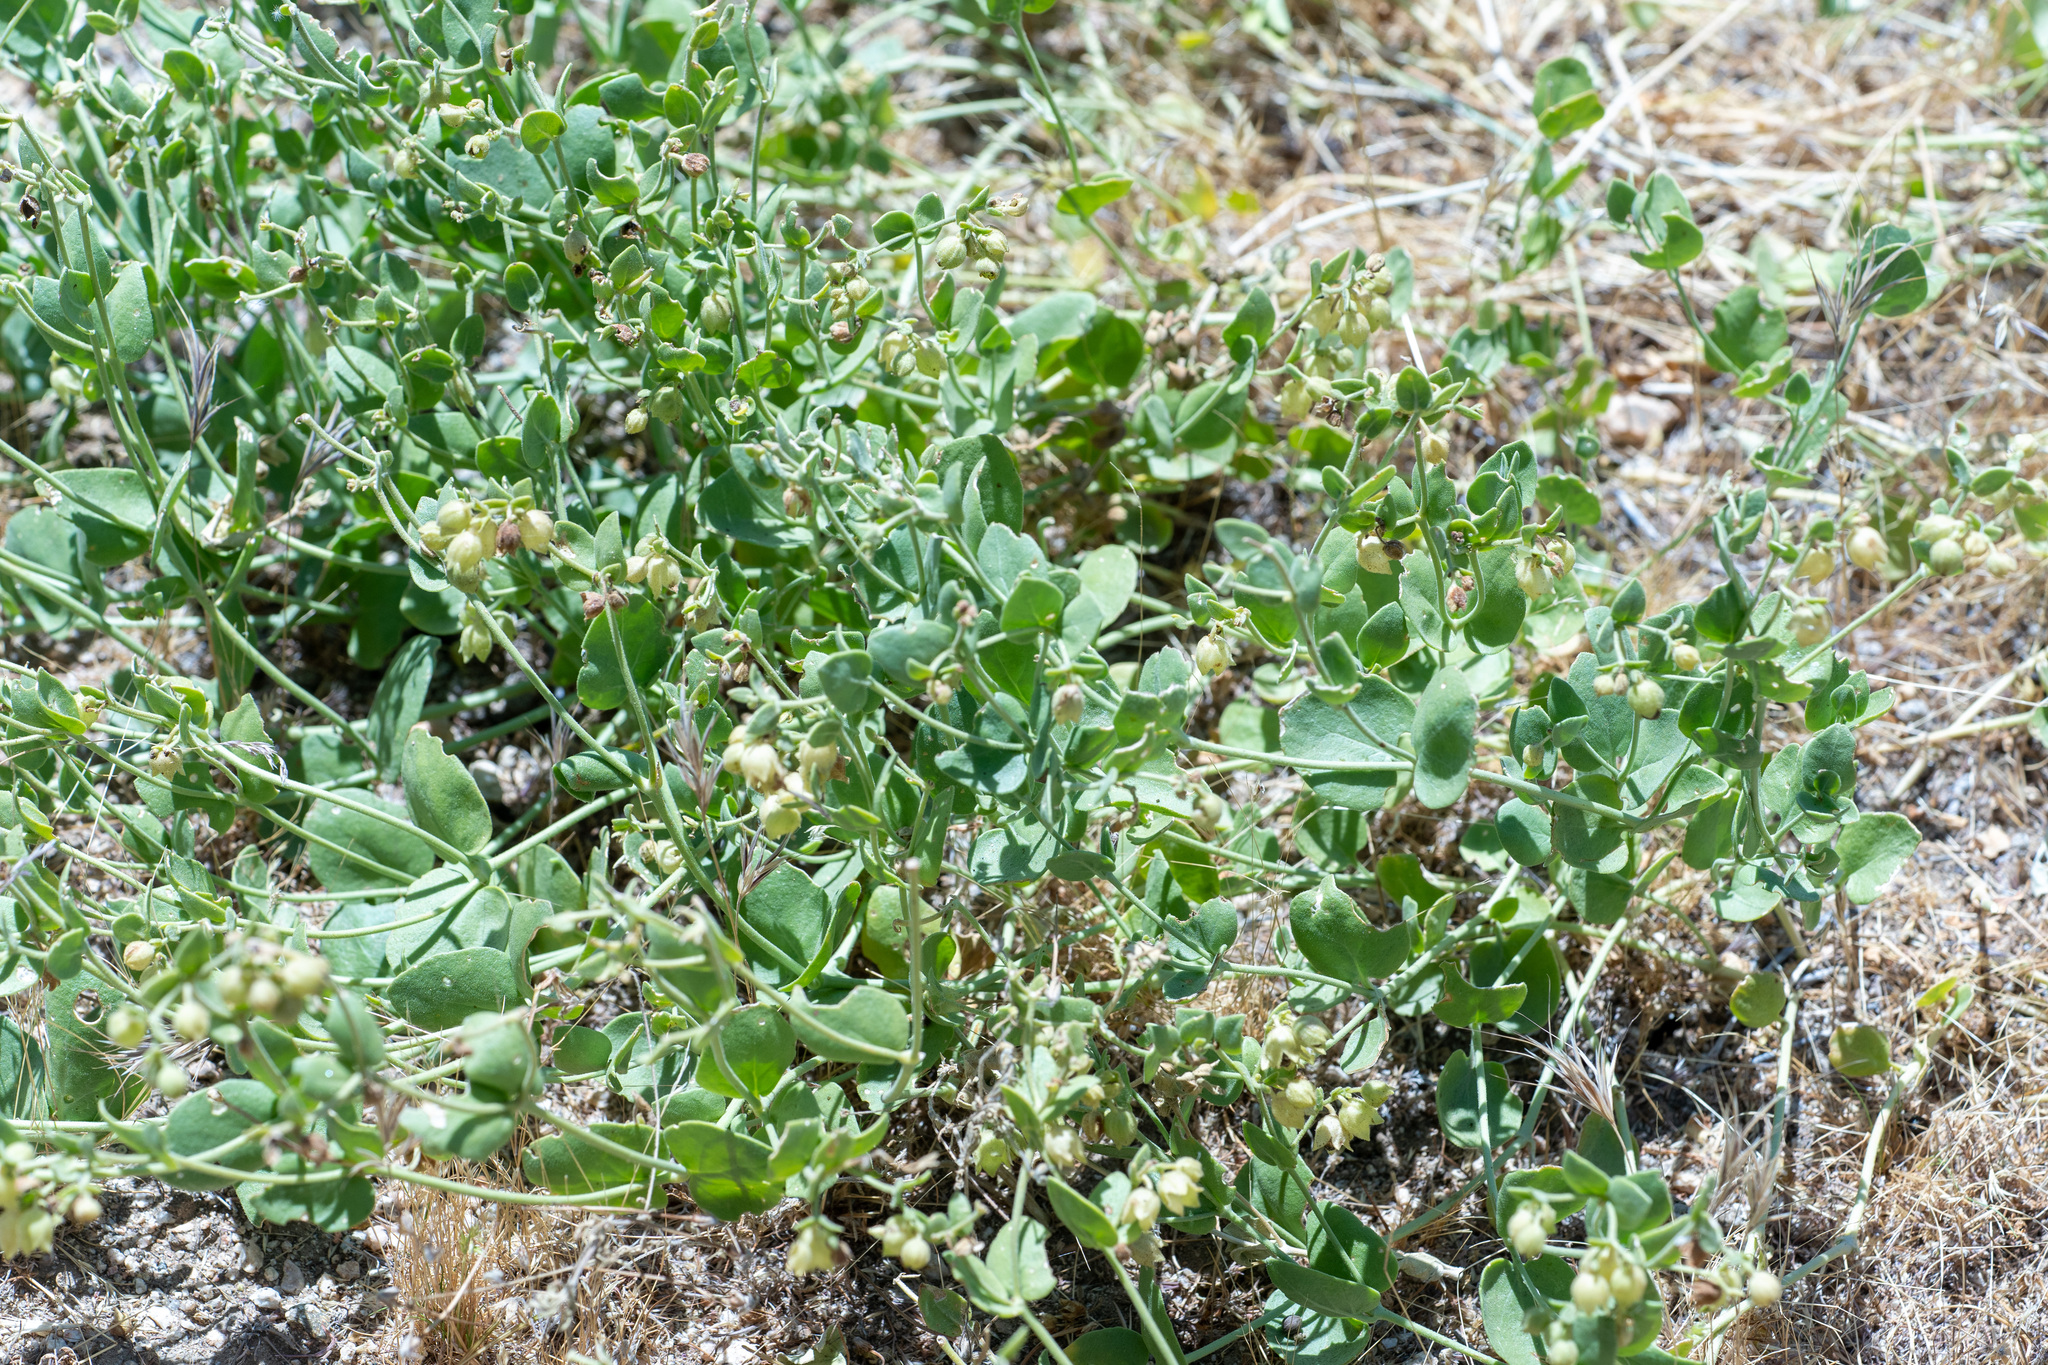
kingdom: Plantae
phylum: Tracheophyta
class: Magnoliopsida
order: Caryophyllales
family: Nyctaginaceae
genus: Mirabilis
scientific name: Mirabilis laevis
